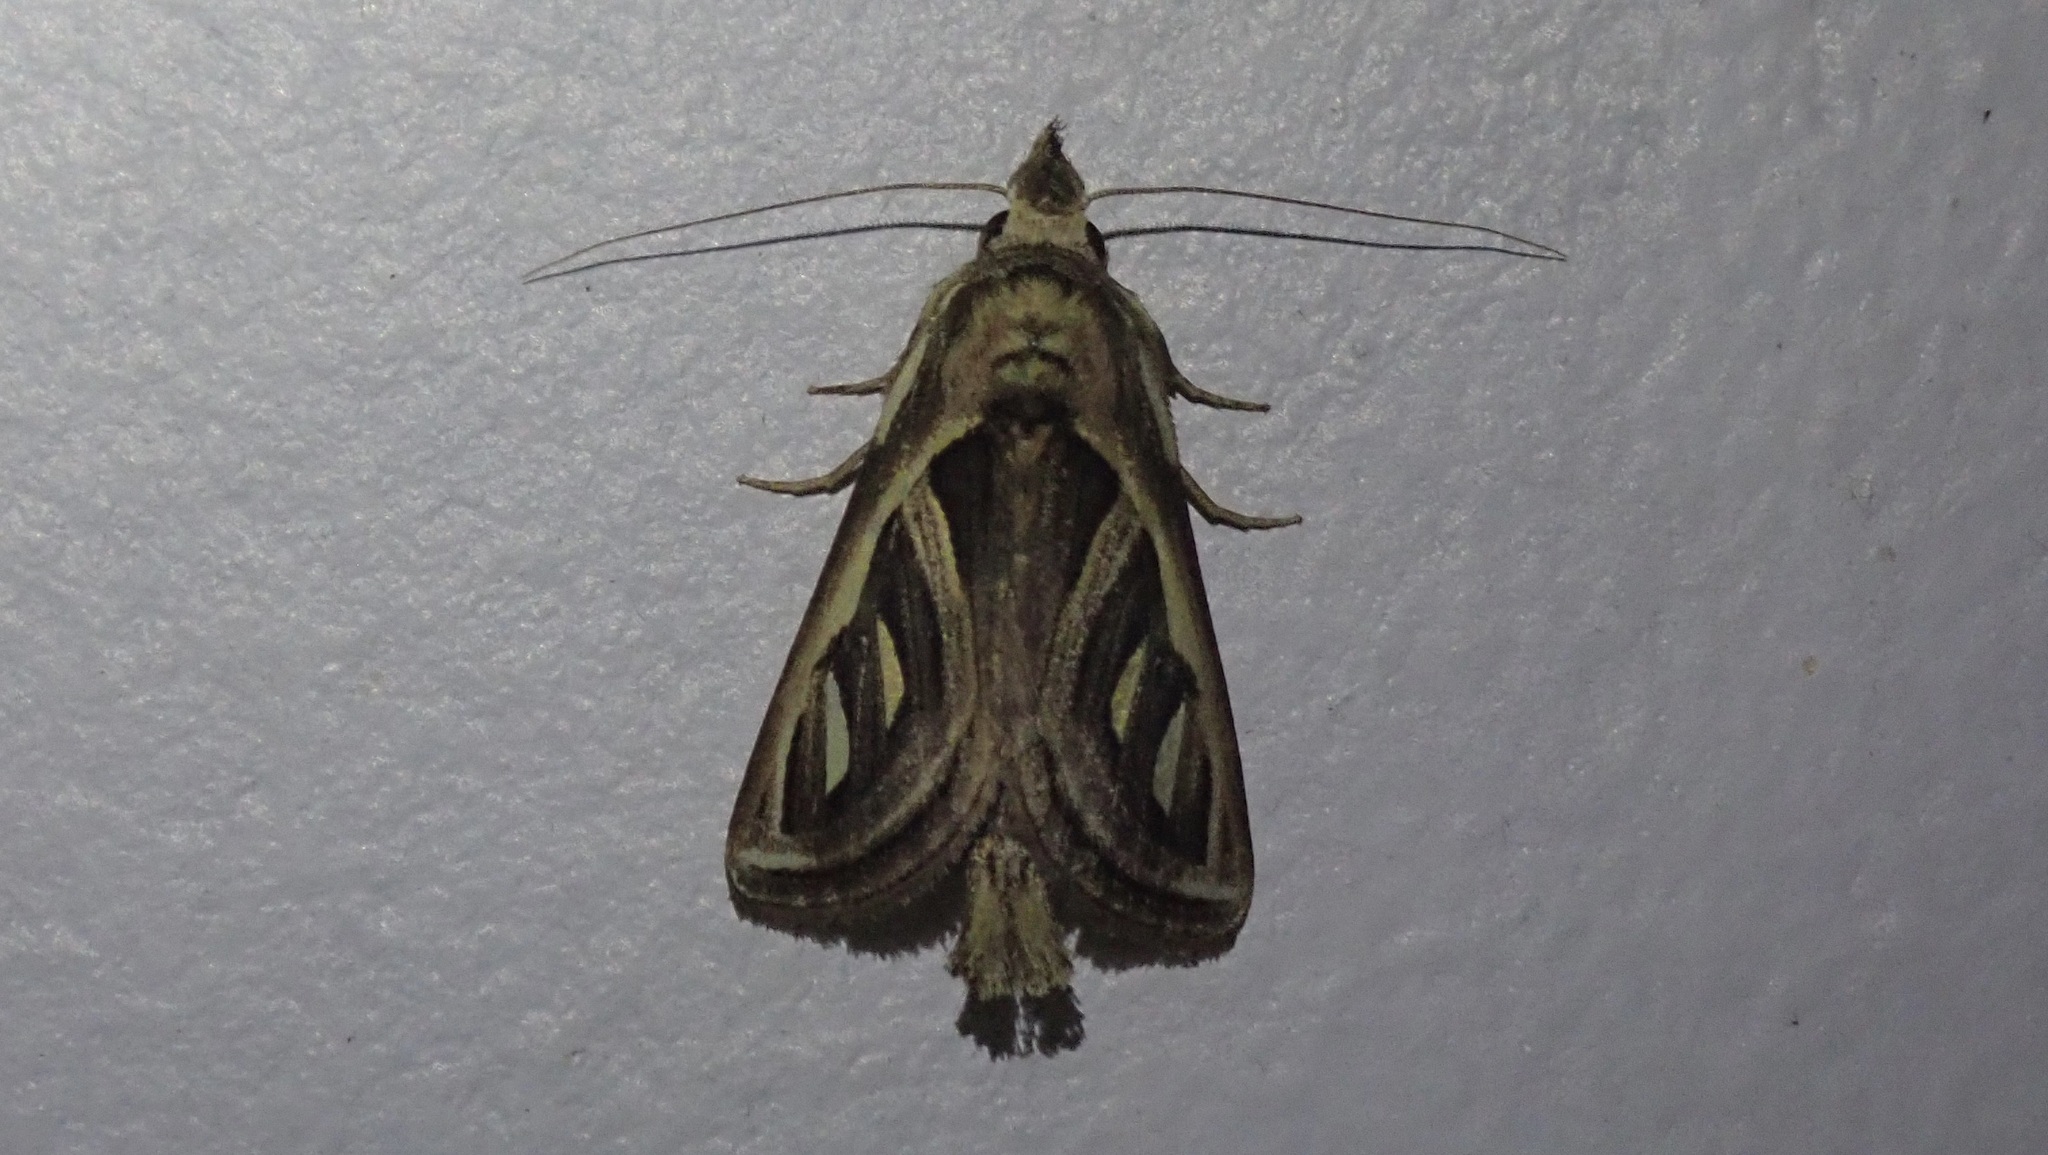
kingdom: Animalia
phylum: Arthropoda
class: Insecta
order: Lepidoptera
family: Notodontidae
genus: Lemairegisa
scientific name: Lemairegisa Lepasta bractea
